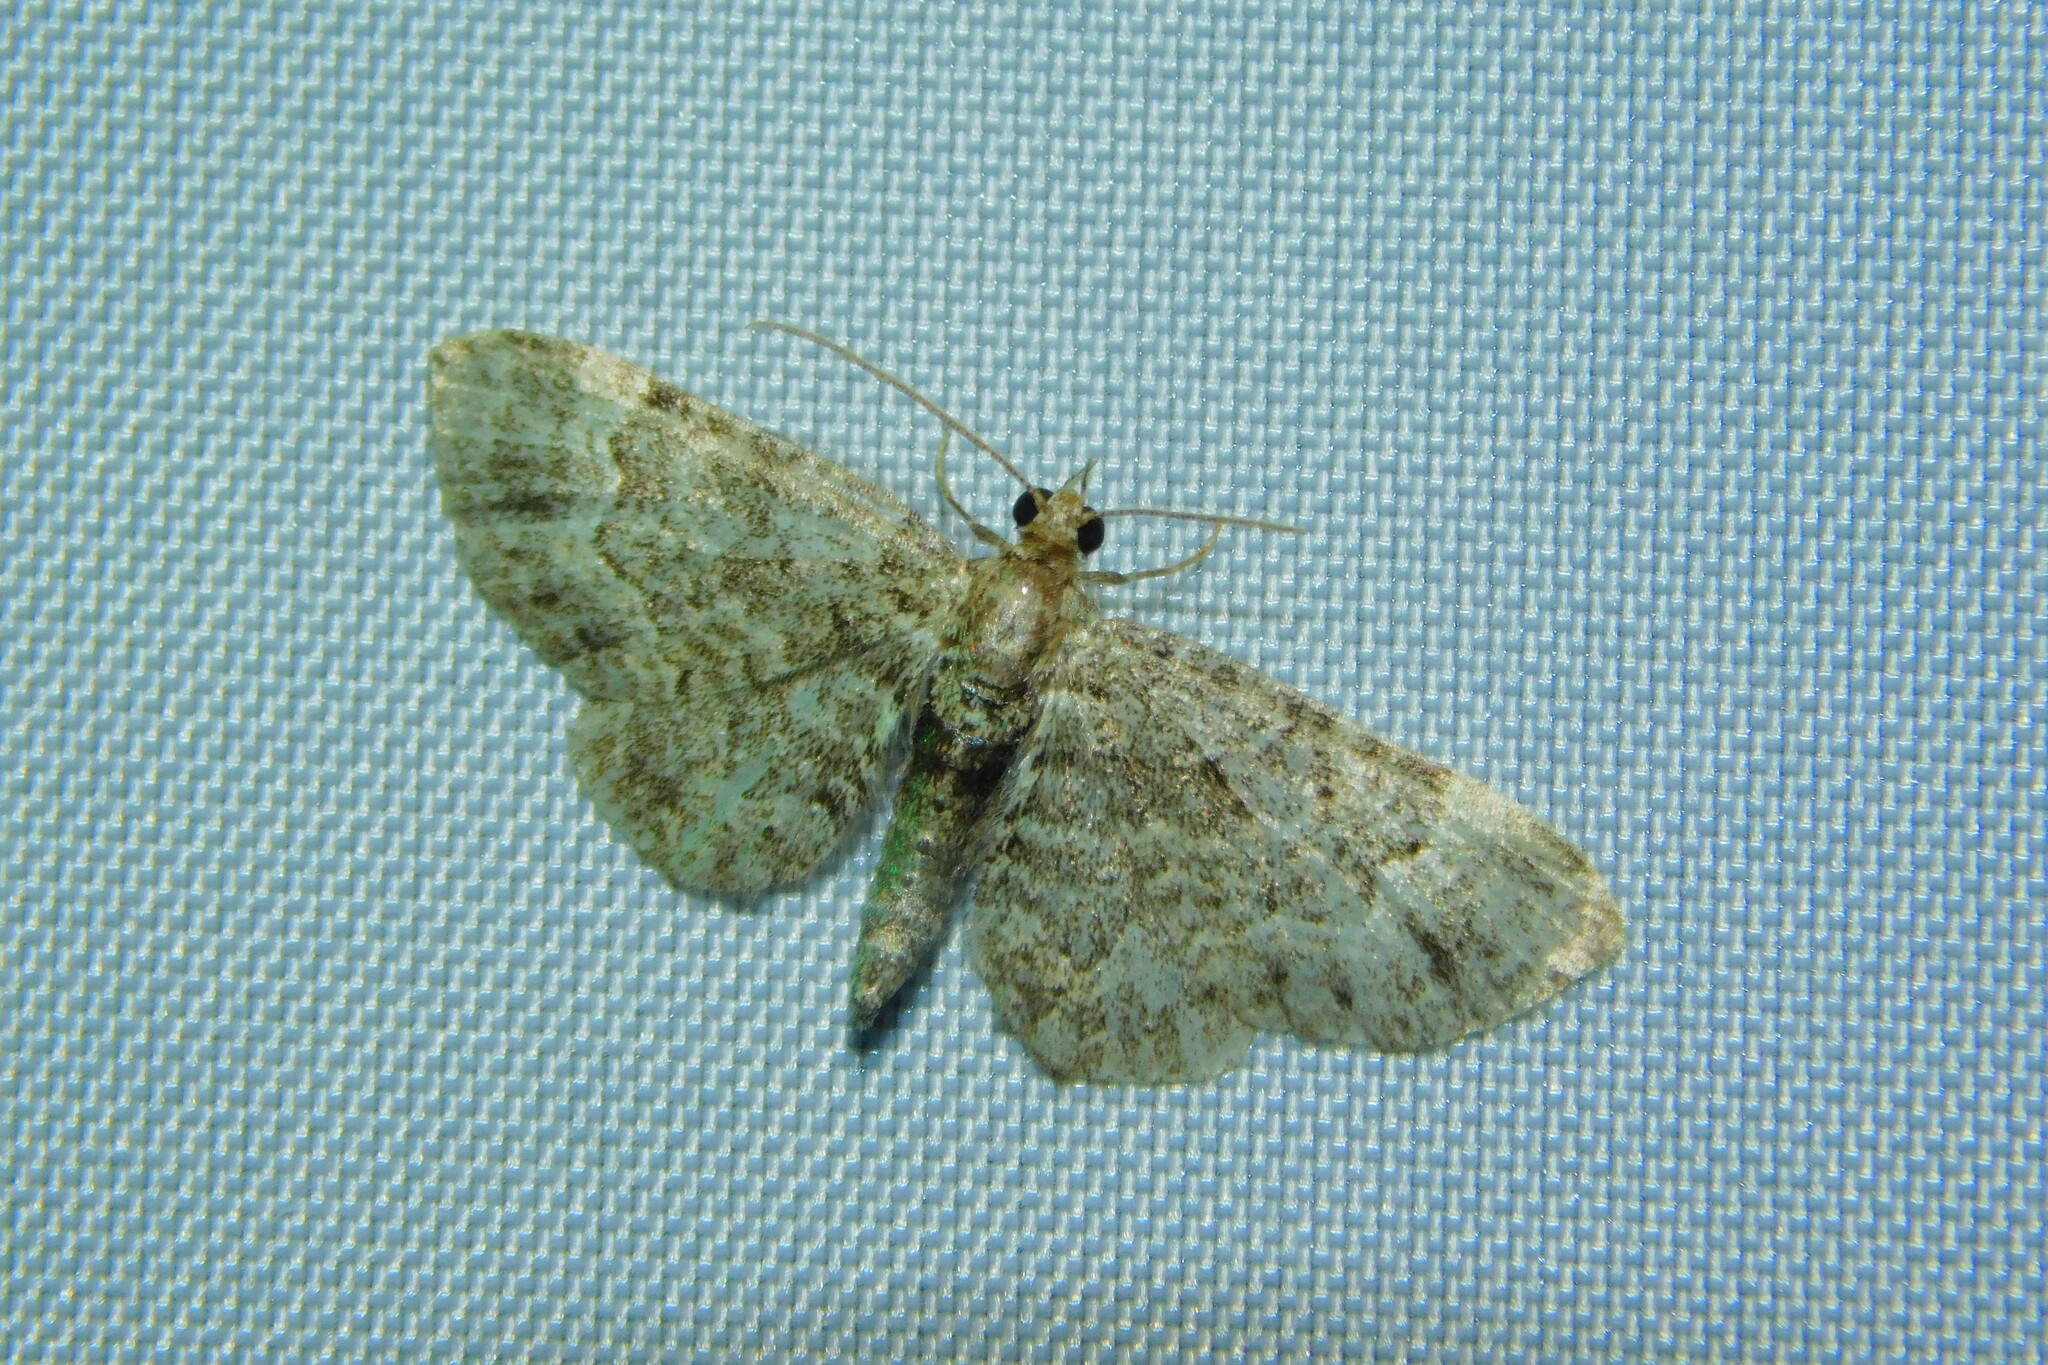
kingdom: Animalia
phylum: Arthropoda
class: Insecta
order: Lepidoptera
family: Geometridae
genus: Pasiphila
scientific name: Pasiphila rectangulata
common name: Green pug
